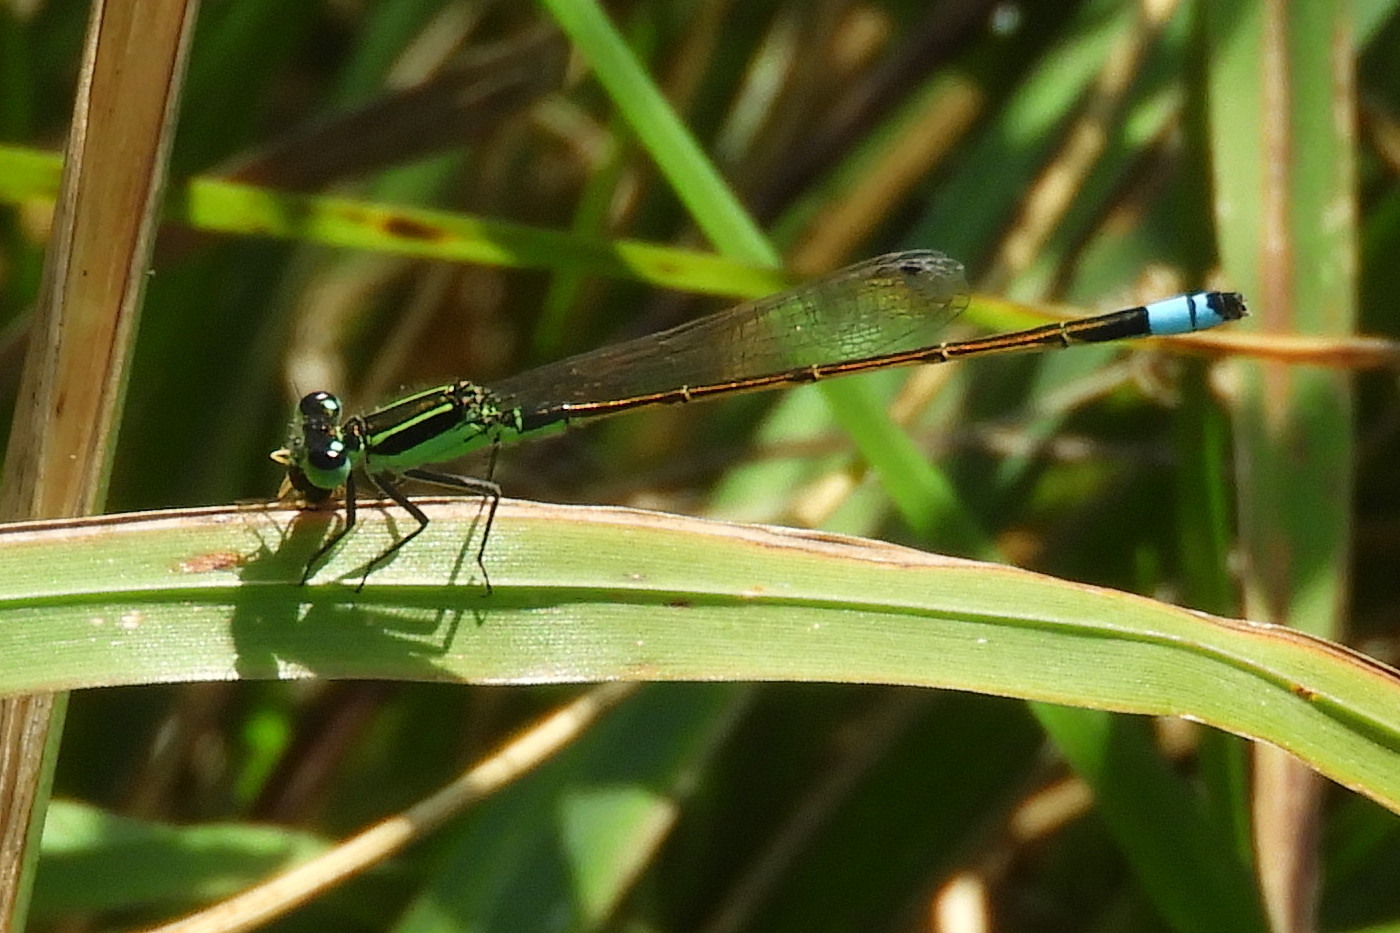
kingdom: Animalia
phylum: Arthropoda
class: Insecta
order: Odonata
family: Coenagrionidae
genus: Ischnura
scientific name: Ischnura ramburii
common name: Rambur's forktail
